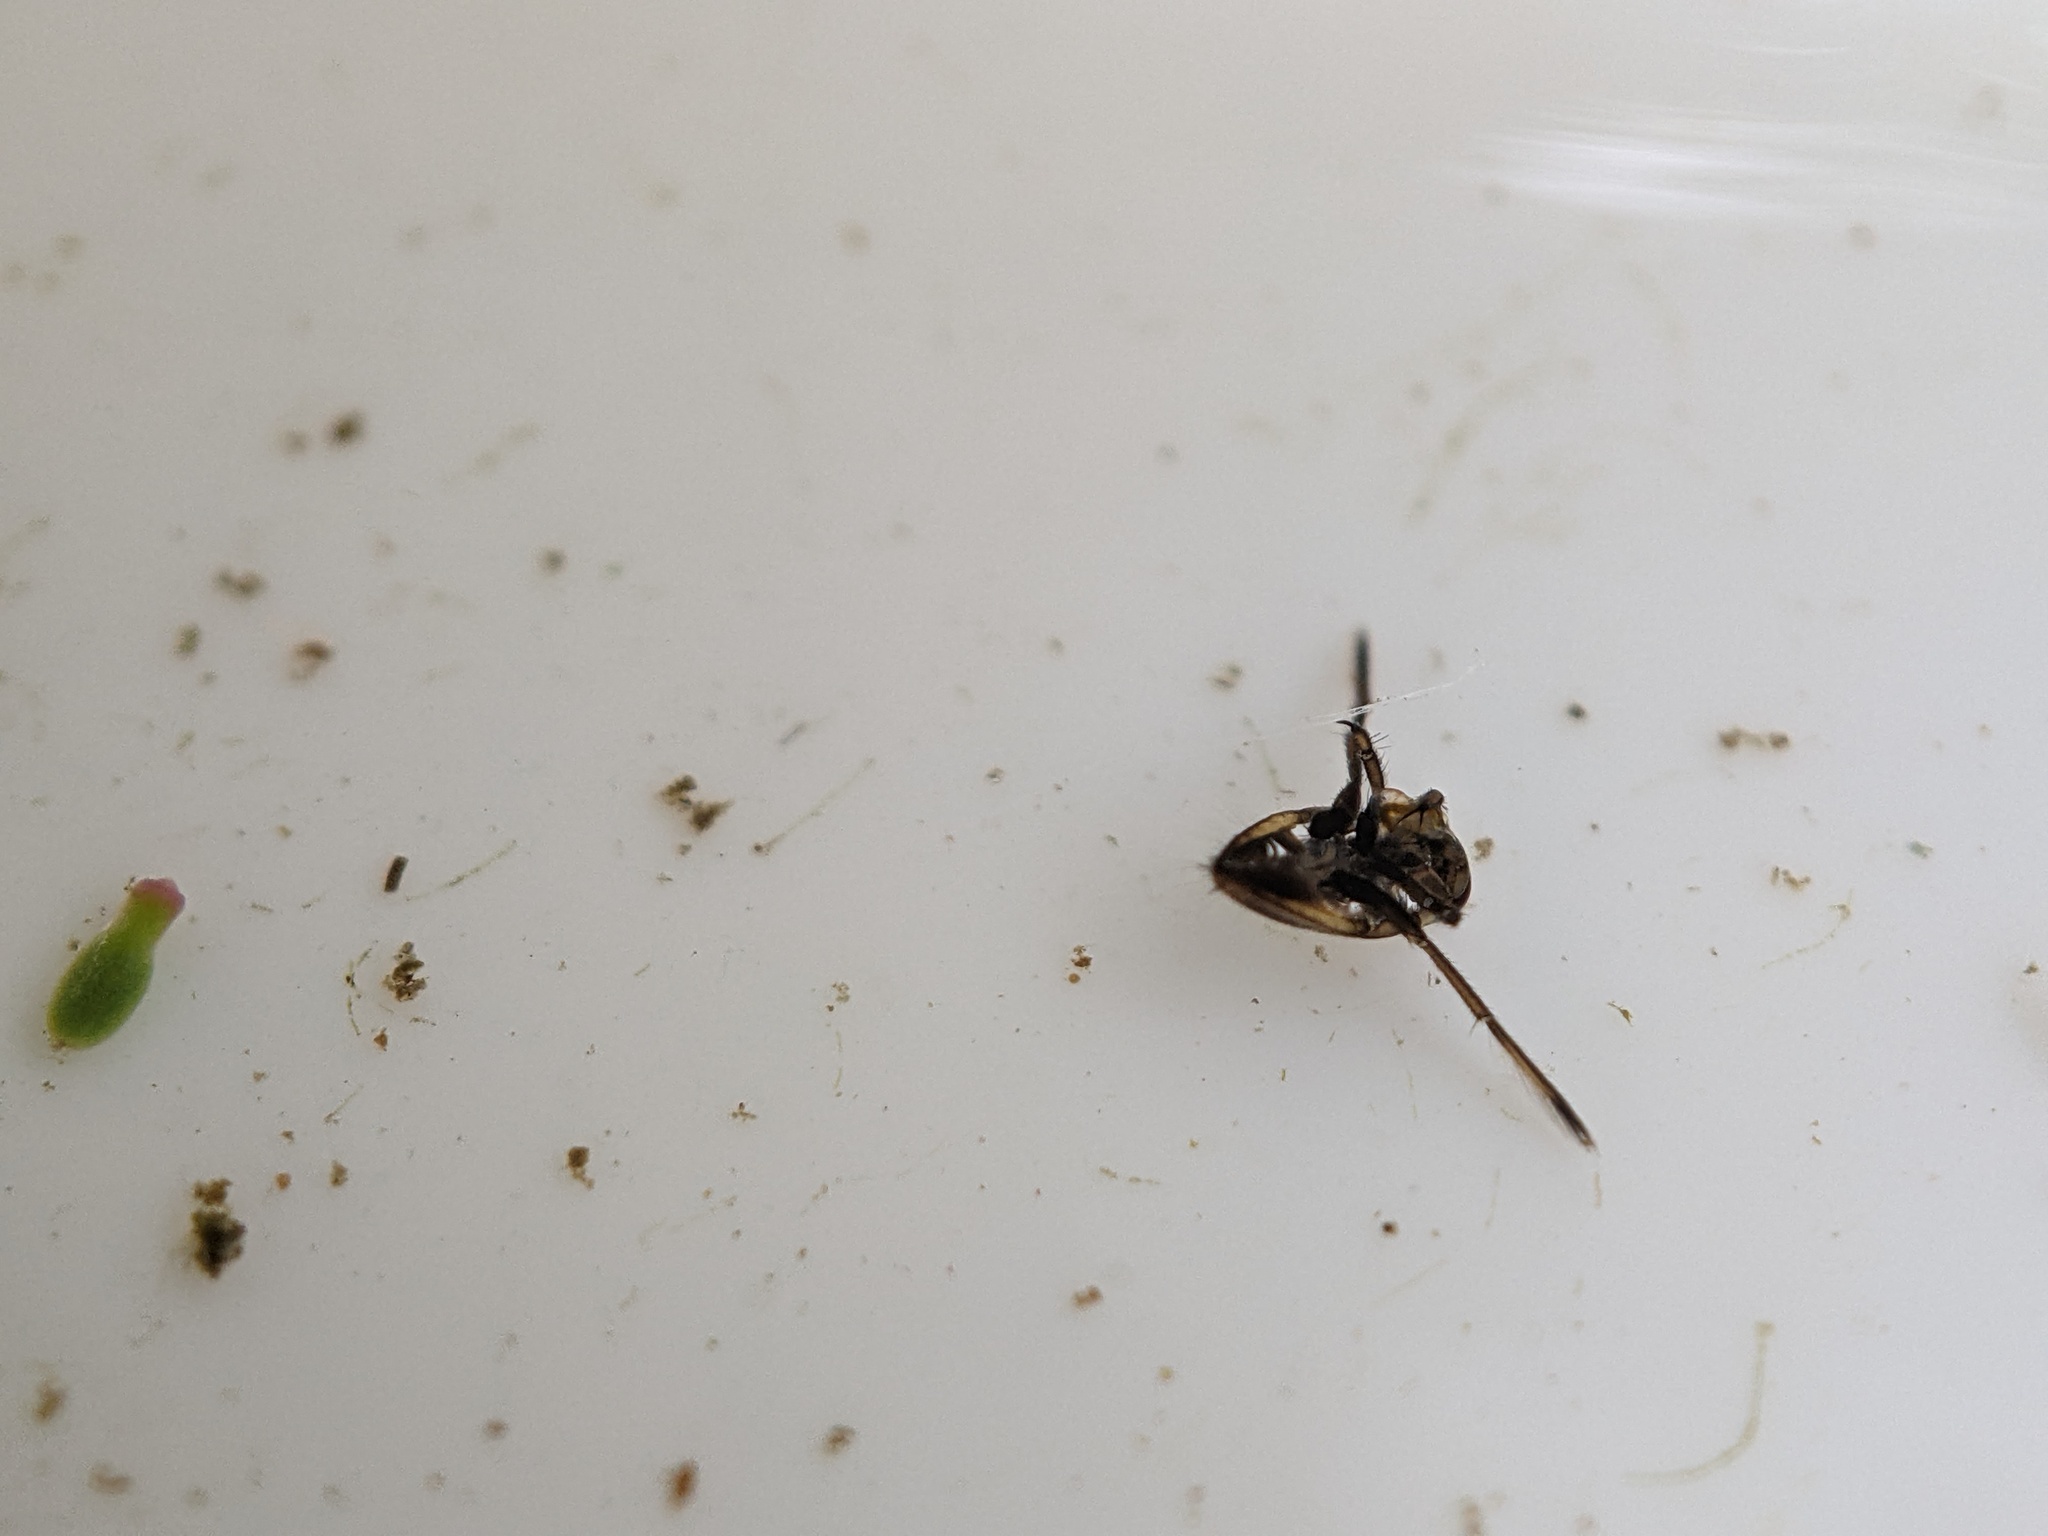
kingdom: Animalia
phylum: Arthropoda
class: Insecta
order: Hemiptera
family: Notonectidae
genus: Notonecta
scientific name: Notonecta
